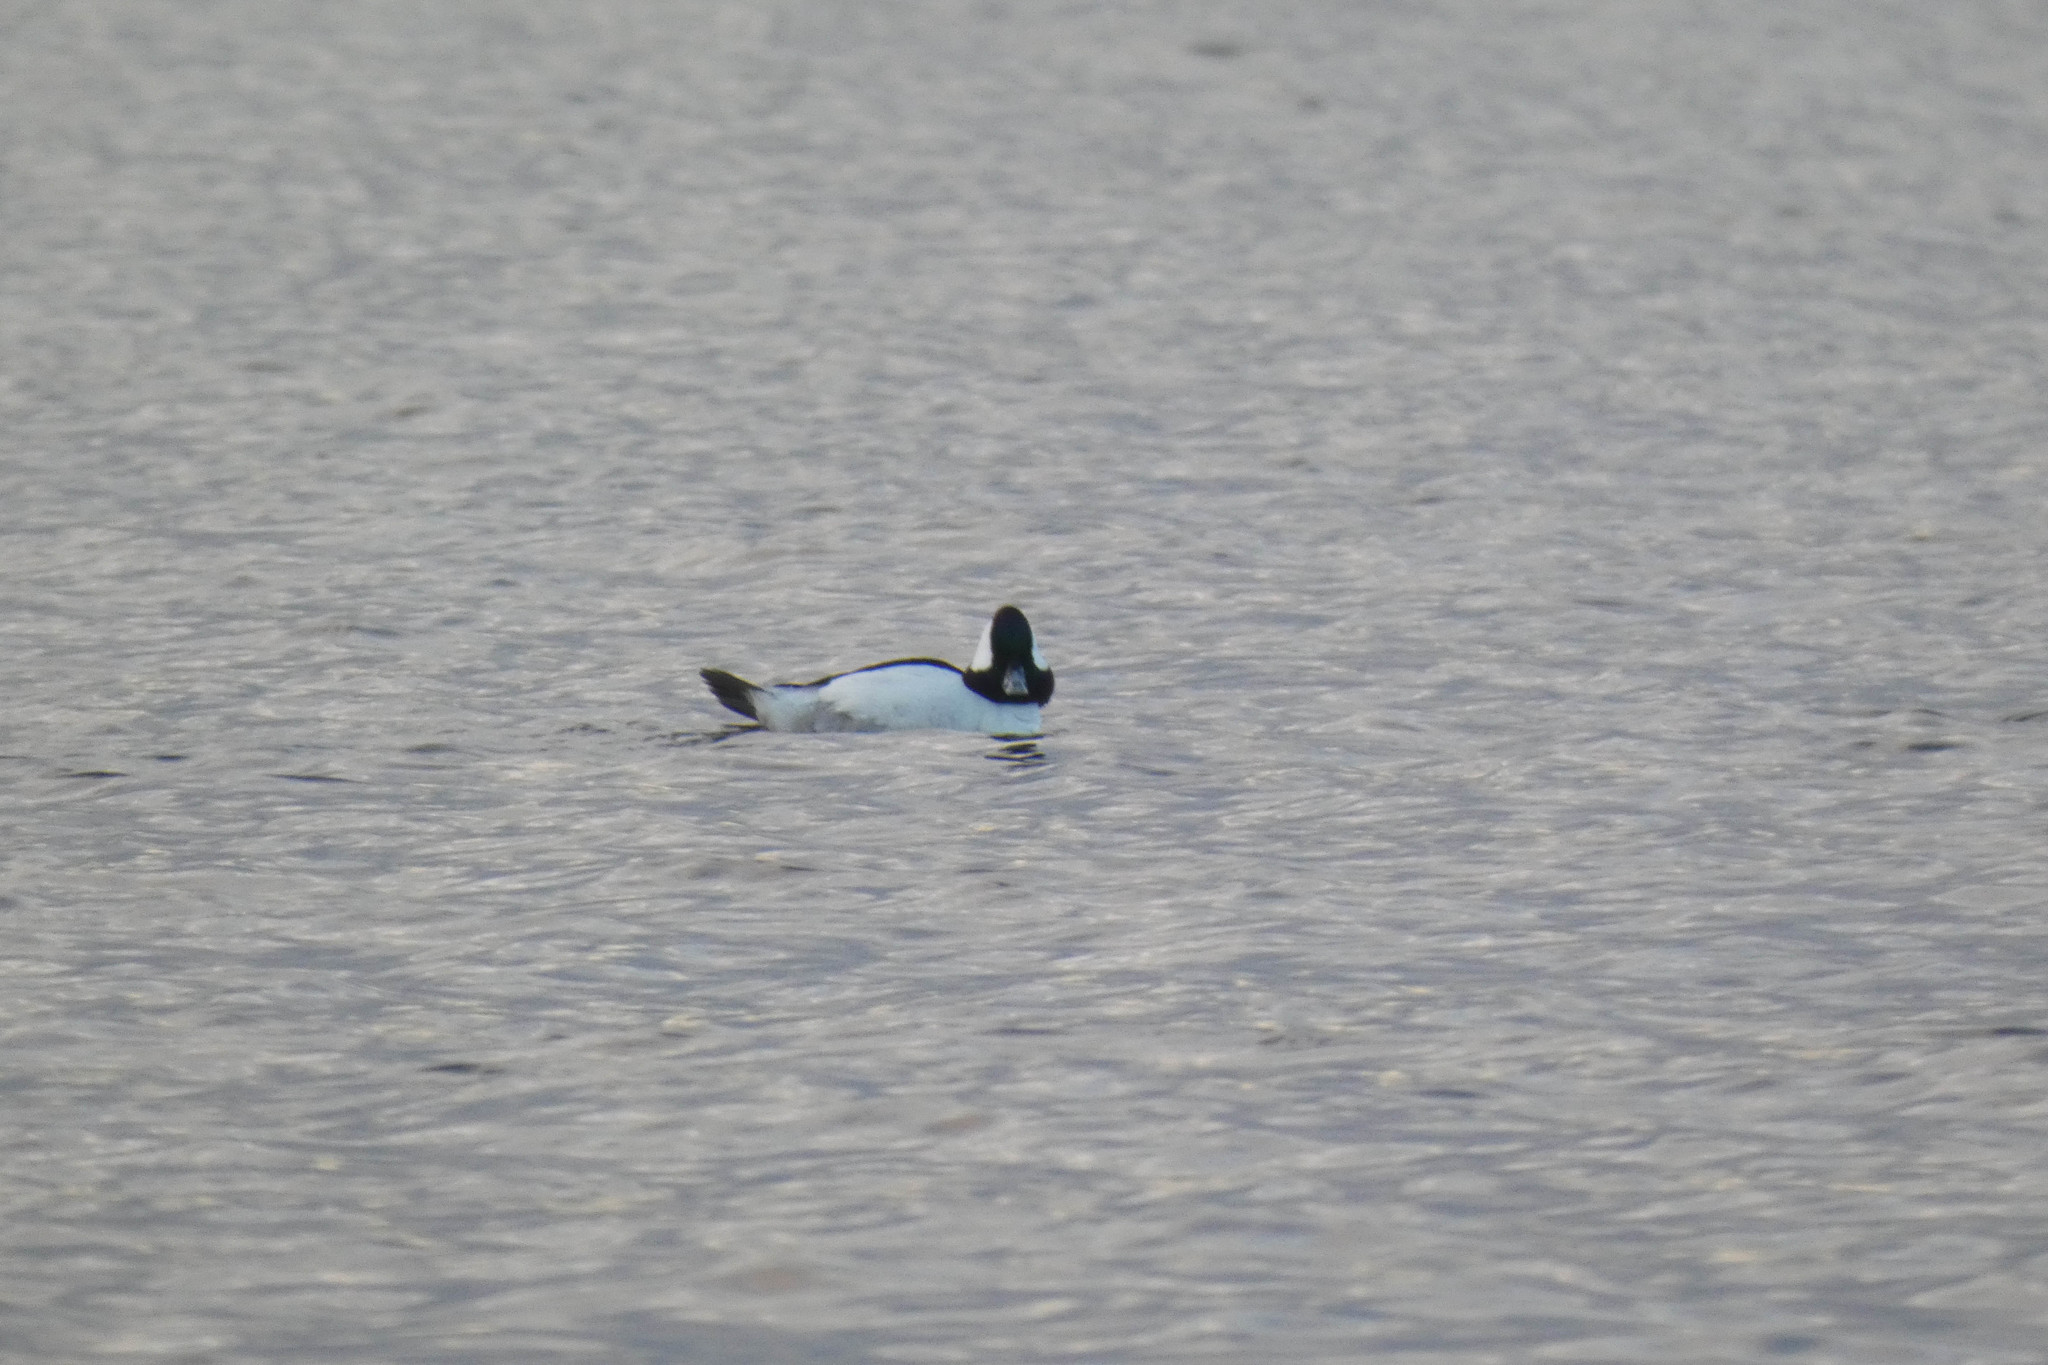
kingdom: Animalia
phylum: Chordata
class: Aves
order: Anseriformes
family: Anatidae
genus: Bucephala
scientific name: Bucephala albeola
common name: Bufflehead
